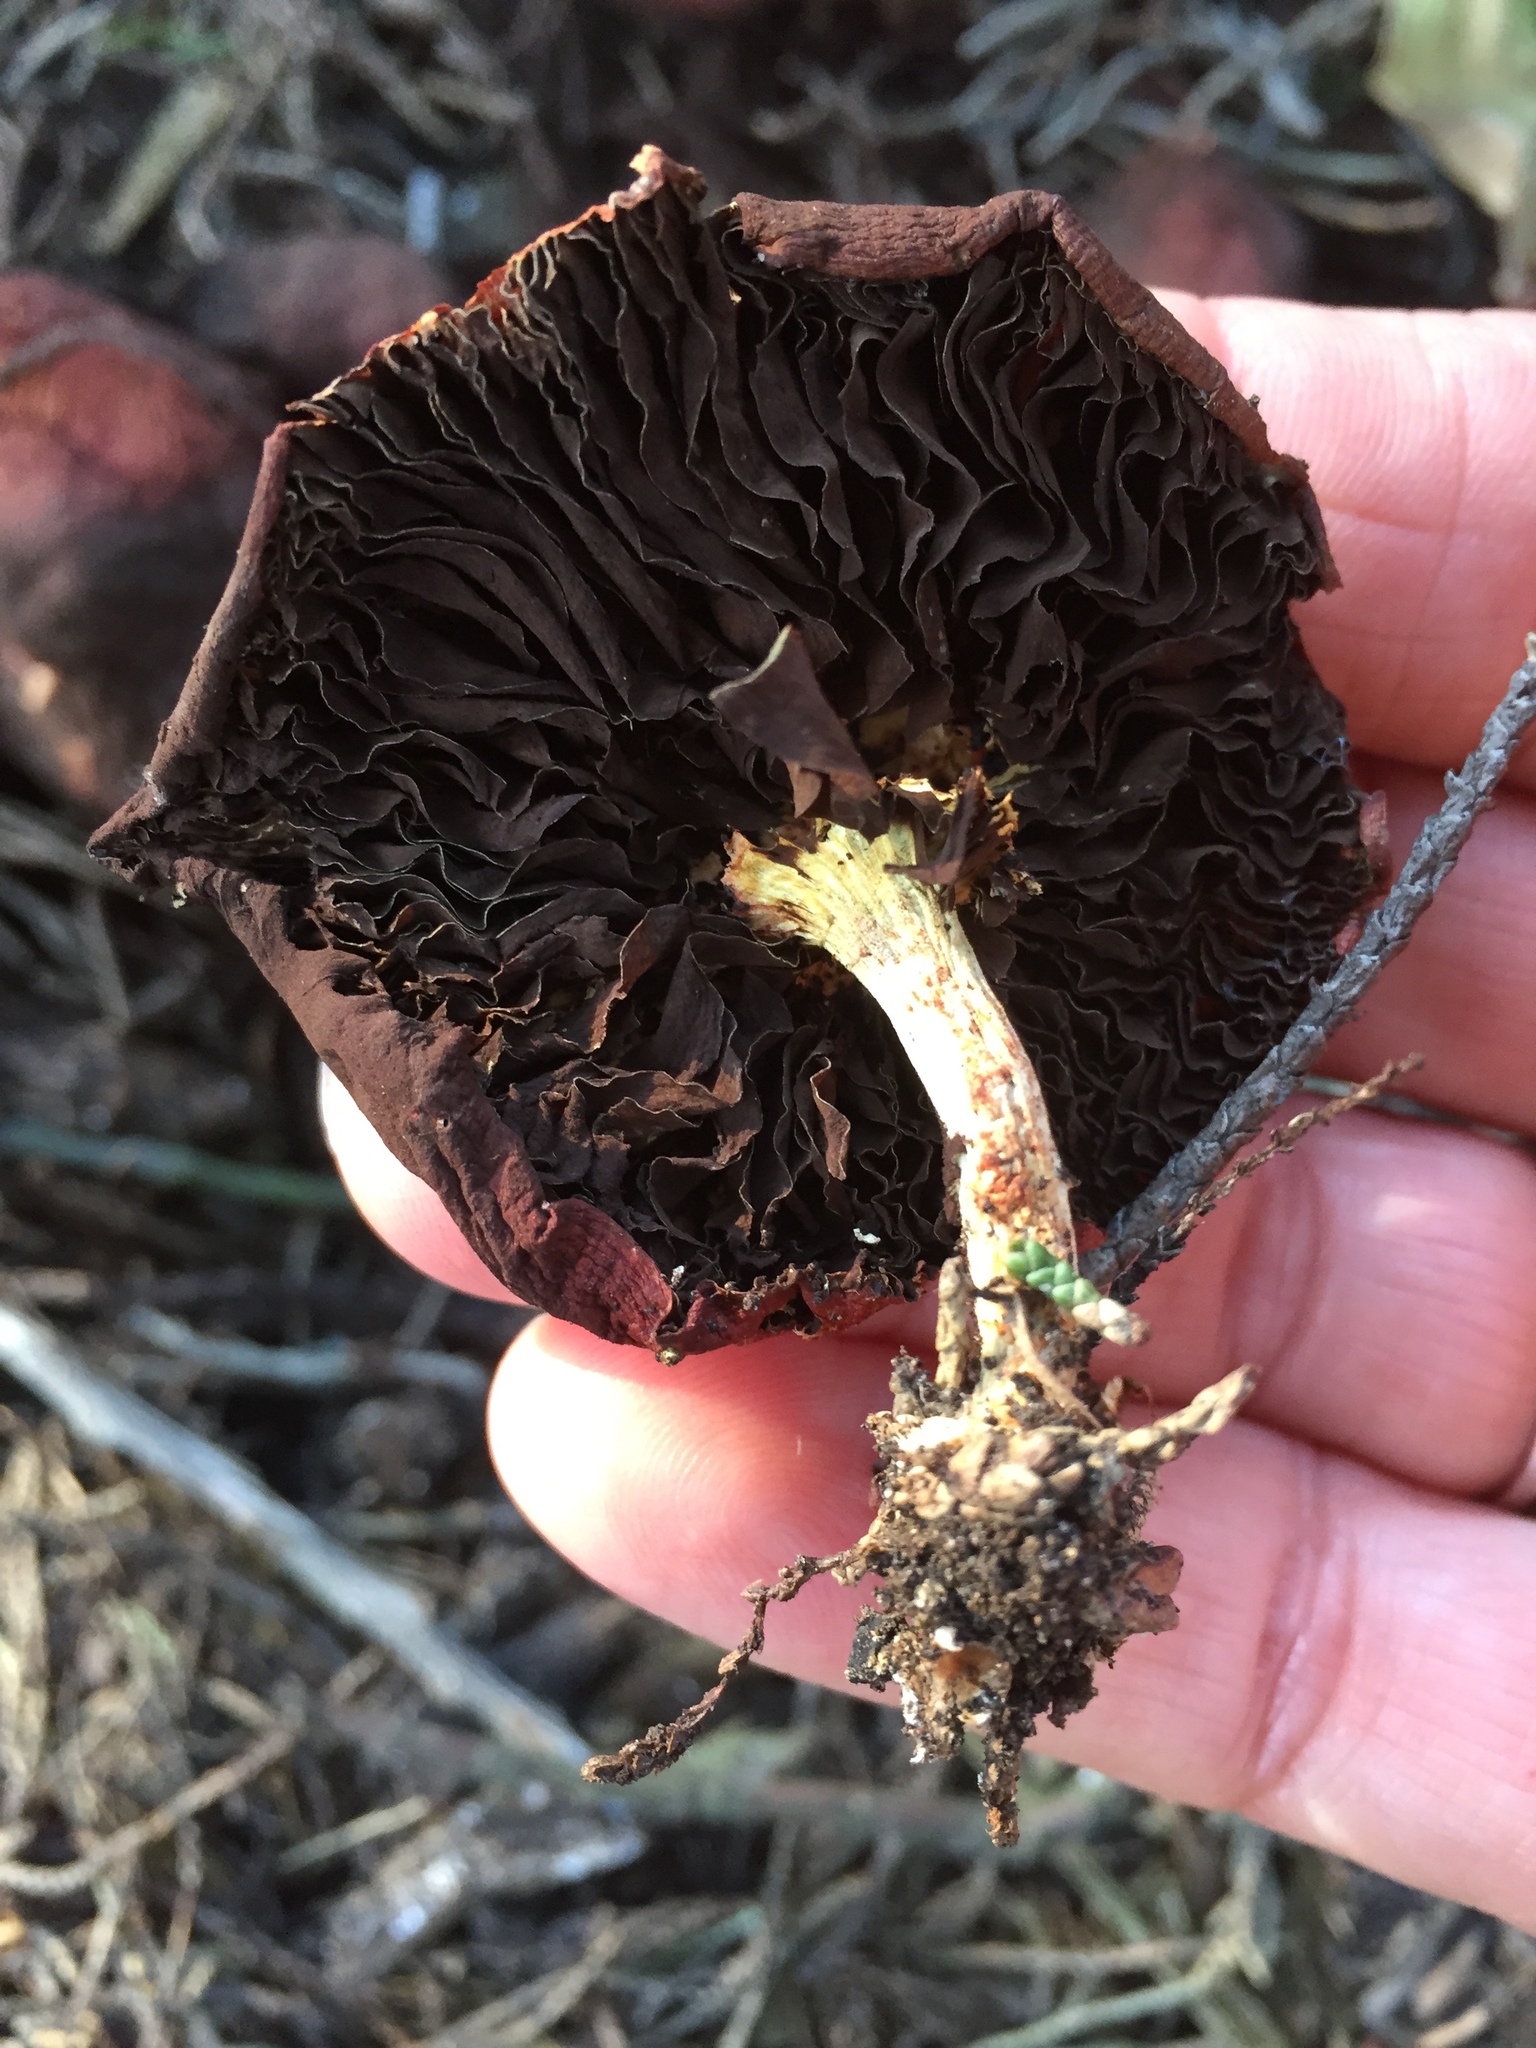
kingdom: Fungi
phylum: Basidiomycota
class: Agaricomycetes
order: Agaricales
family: Strophariaceae
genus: Leratiomyces
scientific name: Leratiomyces ceres
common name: Redlead roundhead
